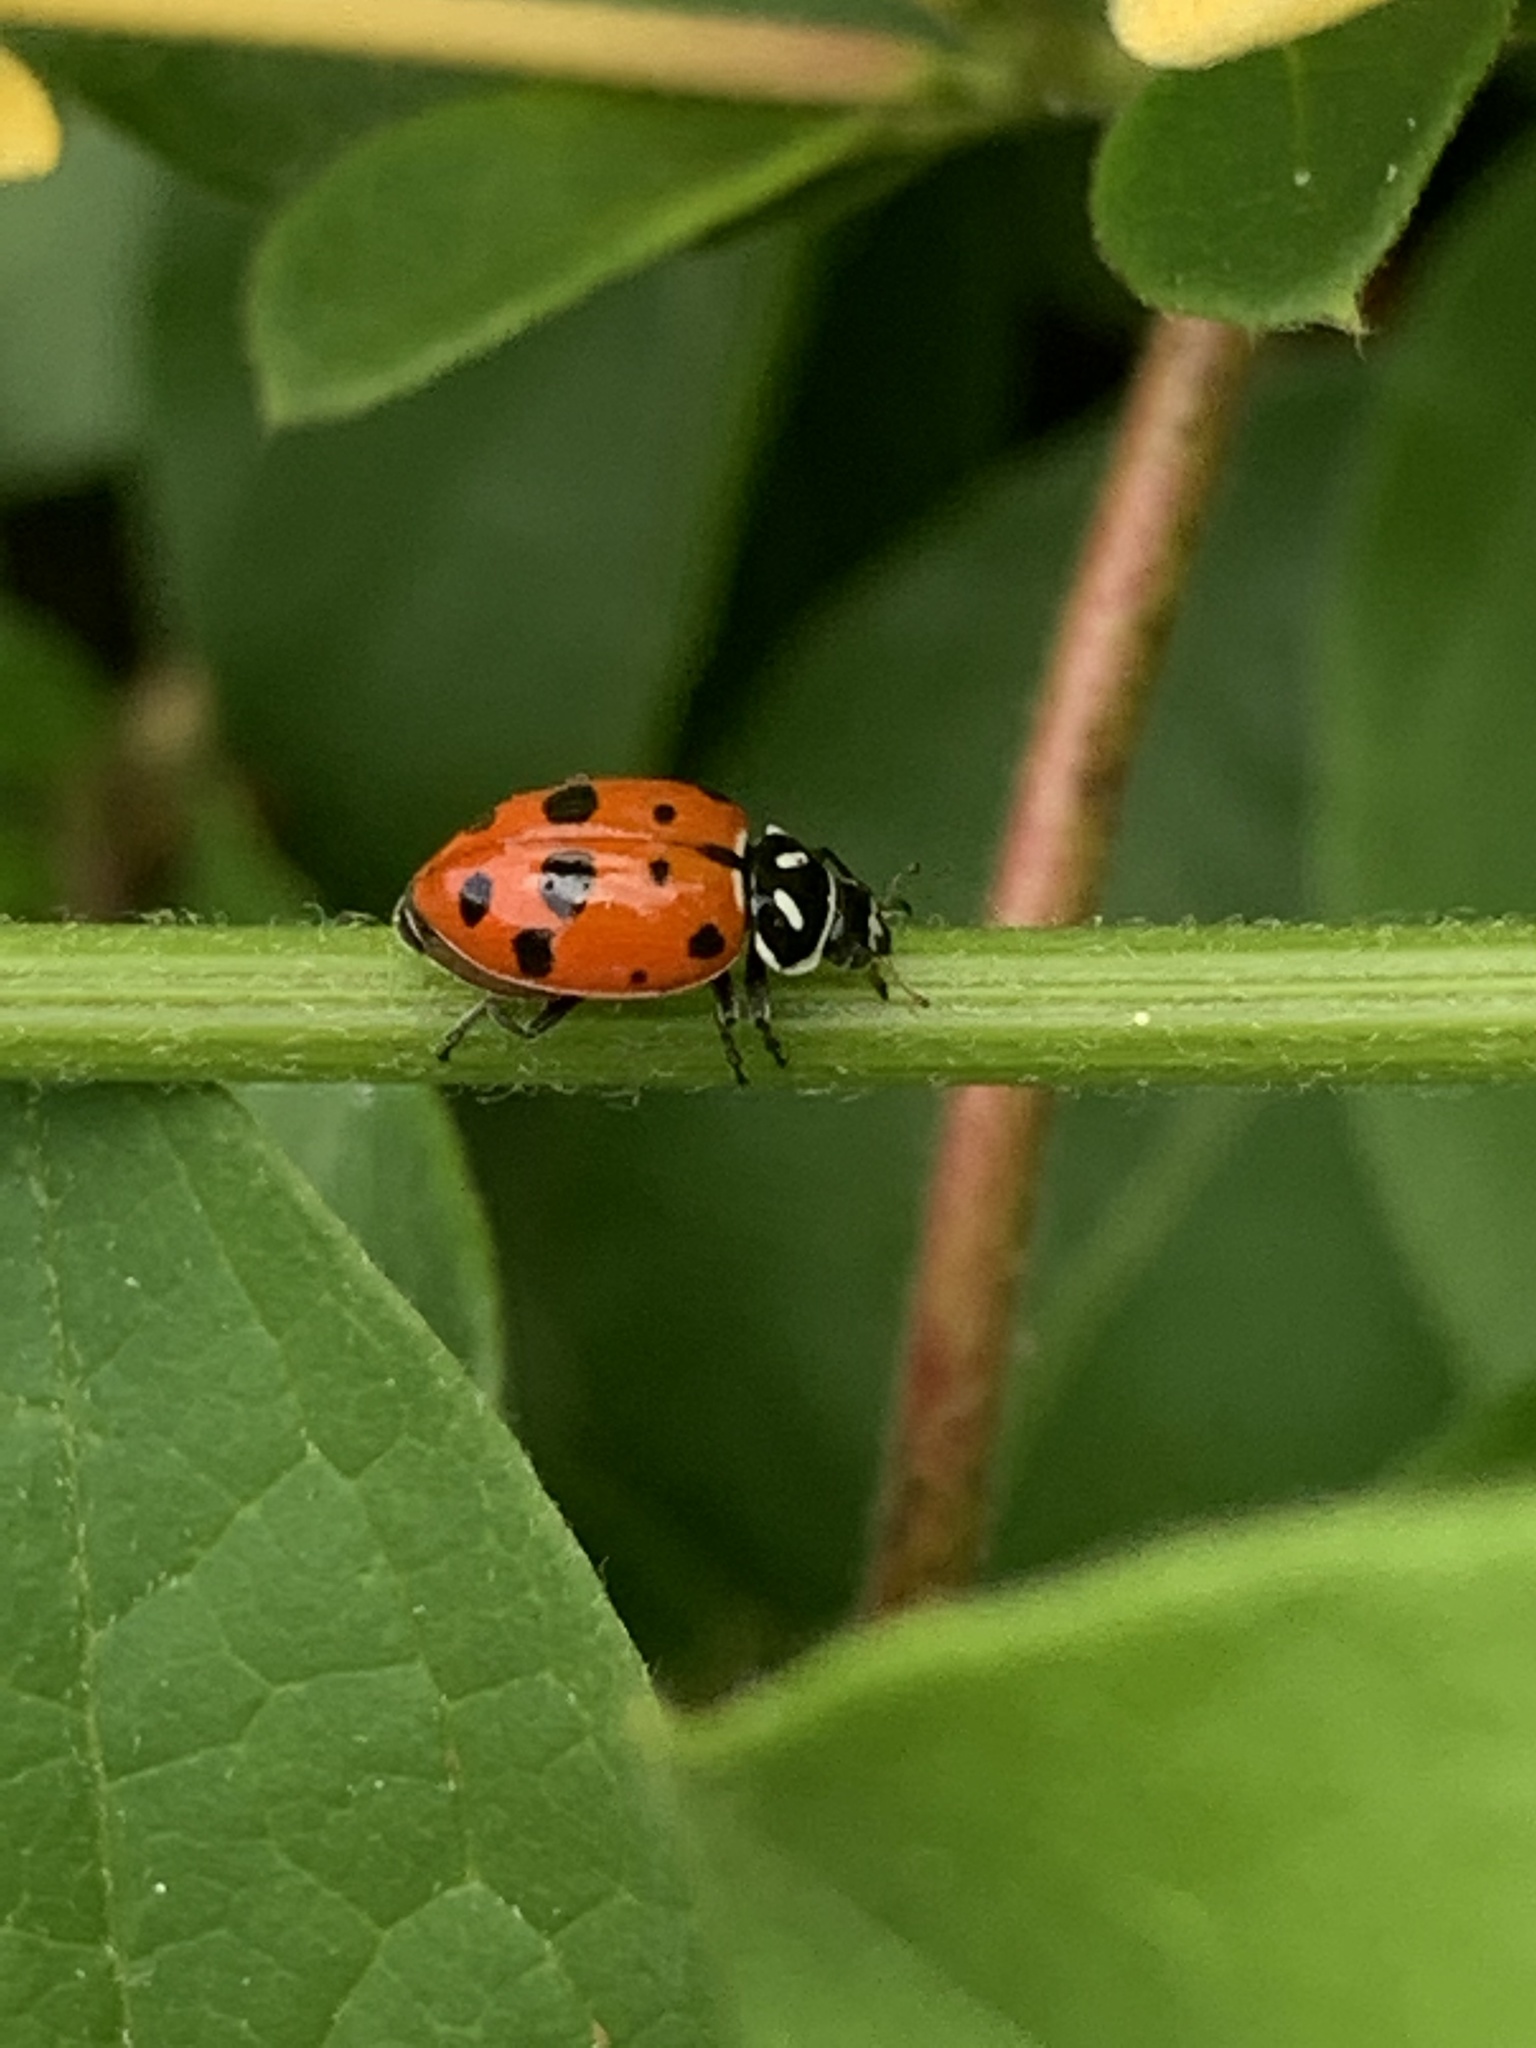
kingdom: Animalia
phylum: Arthropoda
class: Insecta
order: Coleoptera
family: Coccinellidae
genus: Hippodamia
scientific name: Hippodamia convergens
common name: Convergent lady beetle
